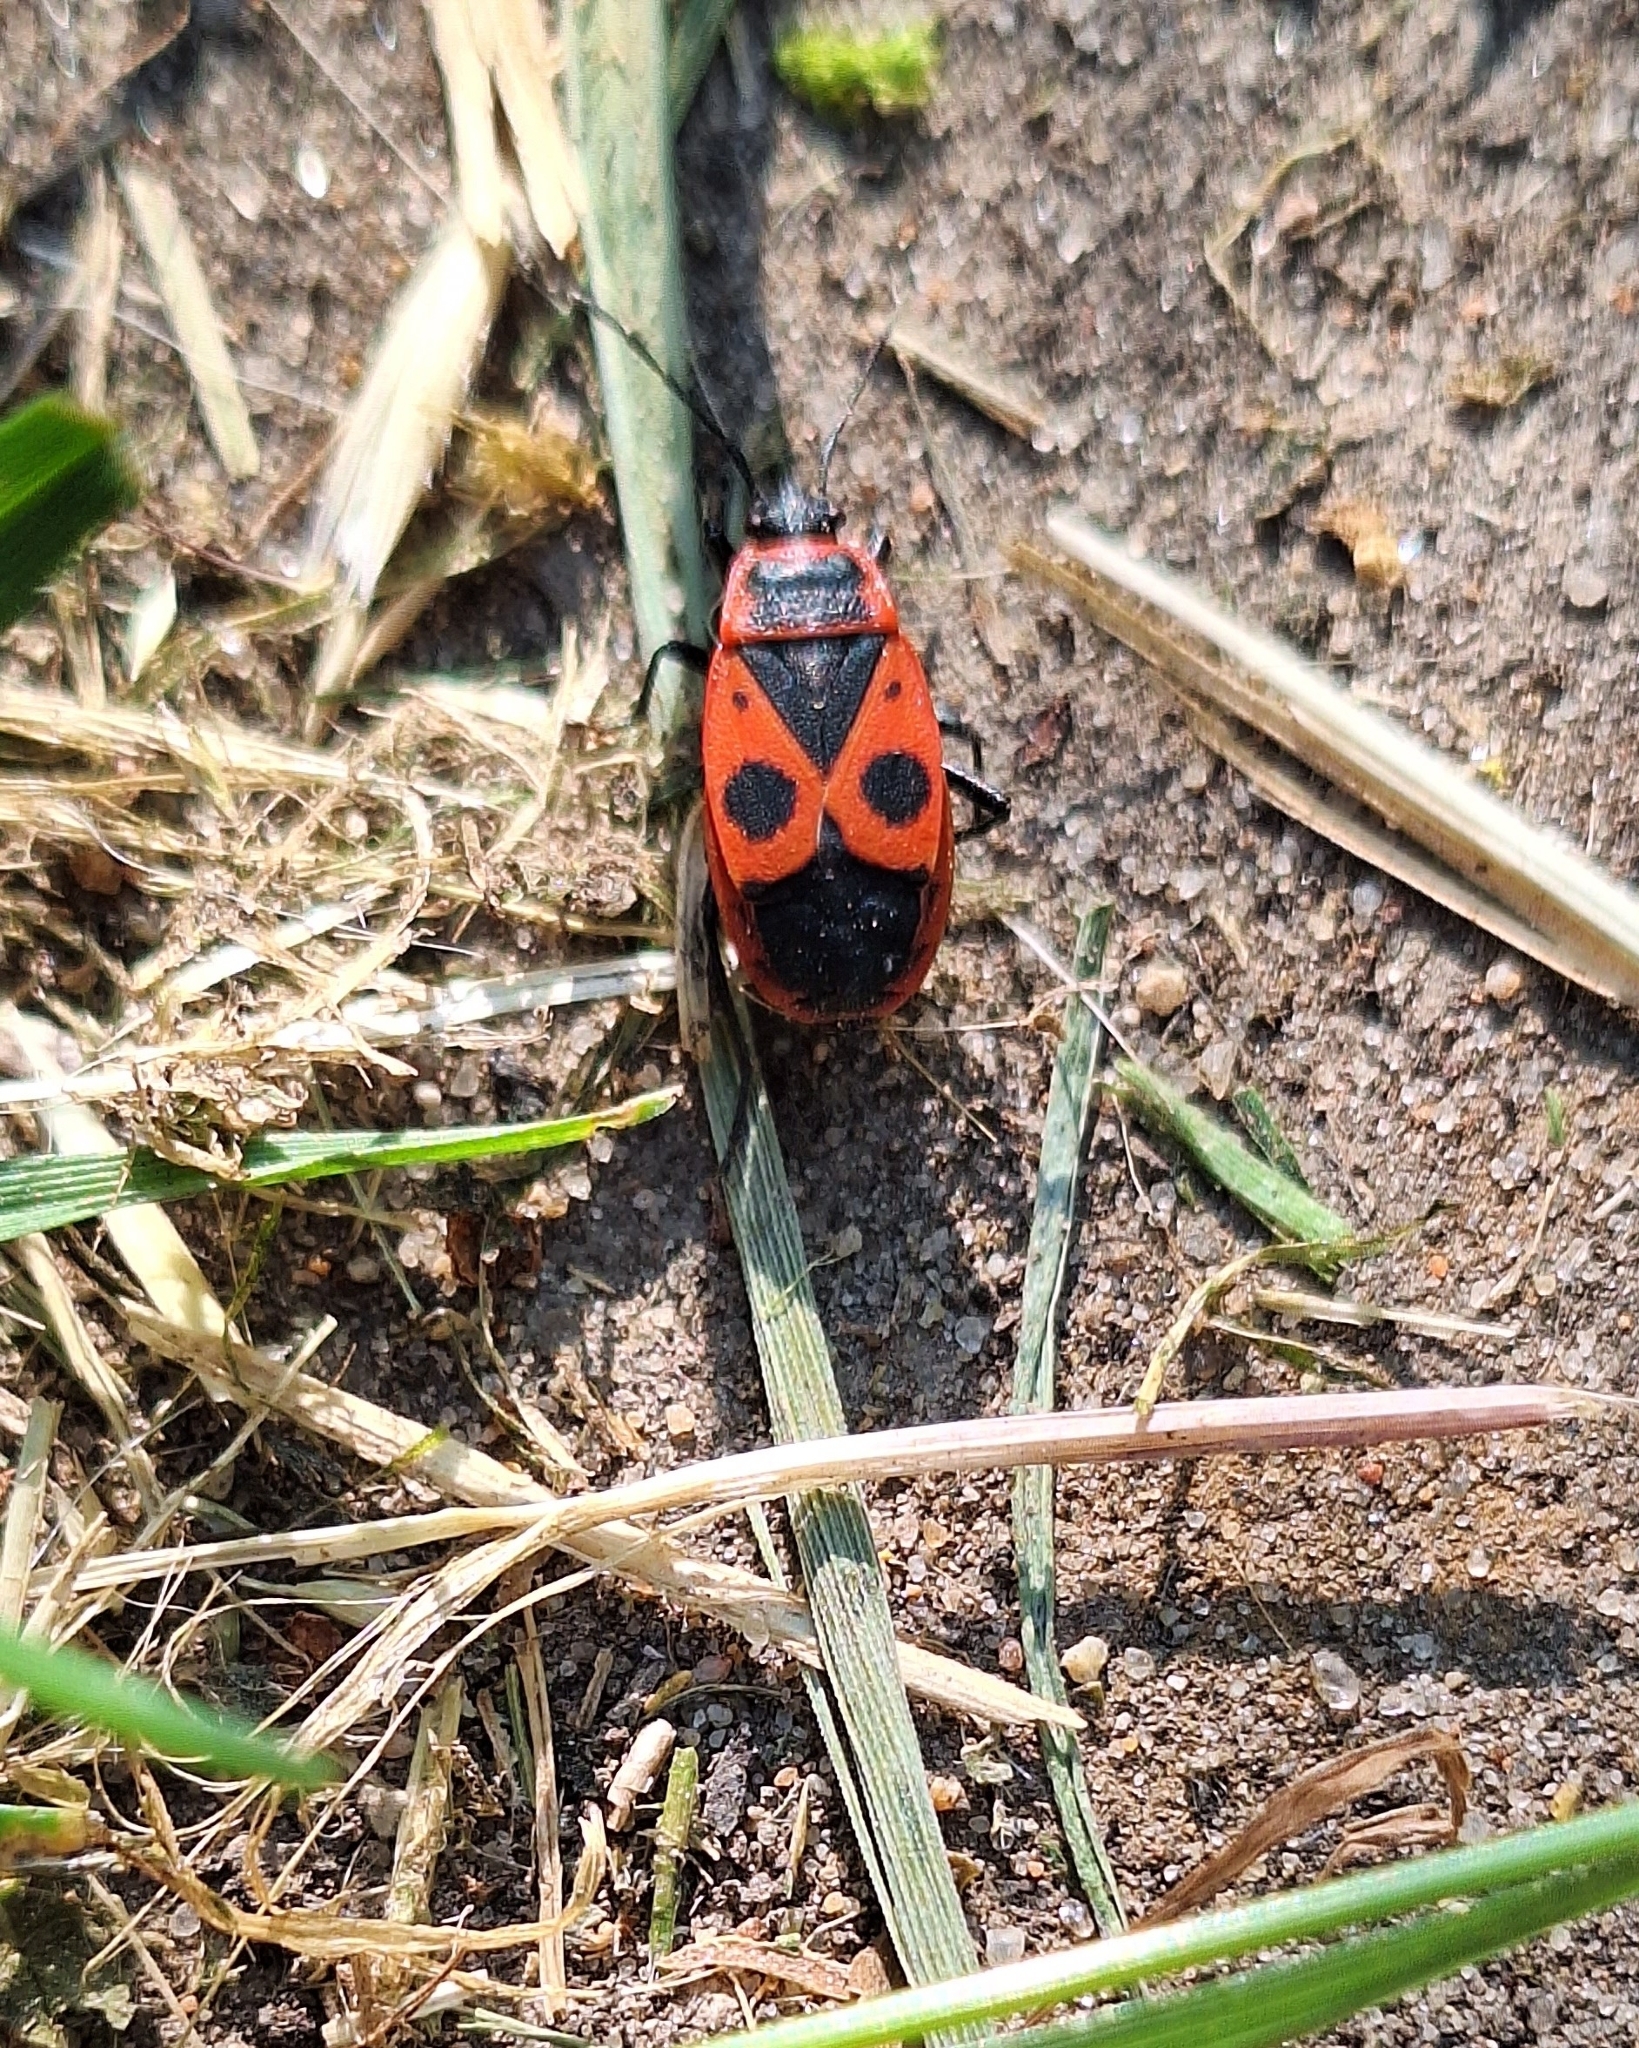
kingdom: Animalia
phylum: Arthropoda
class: Insecta
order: Hemiptera
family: Pyrrhocoridae
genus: Pyrrhocoris
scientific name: Pyrrhocoris apterus
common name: Firebug
